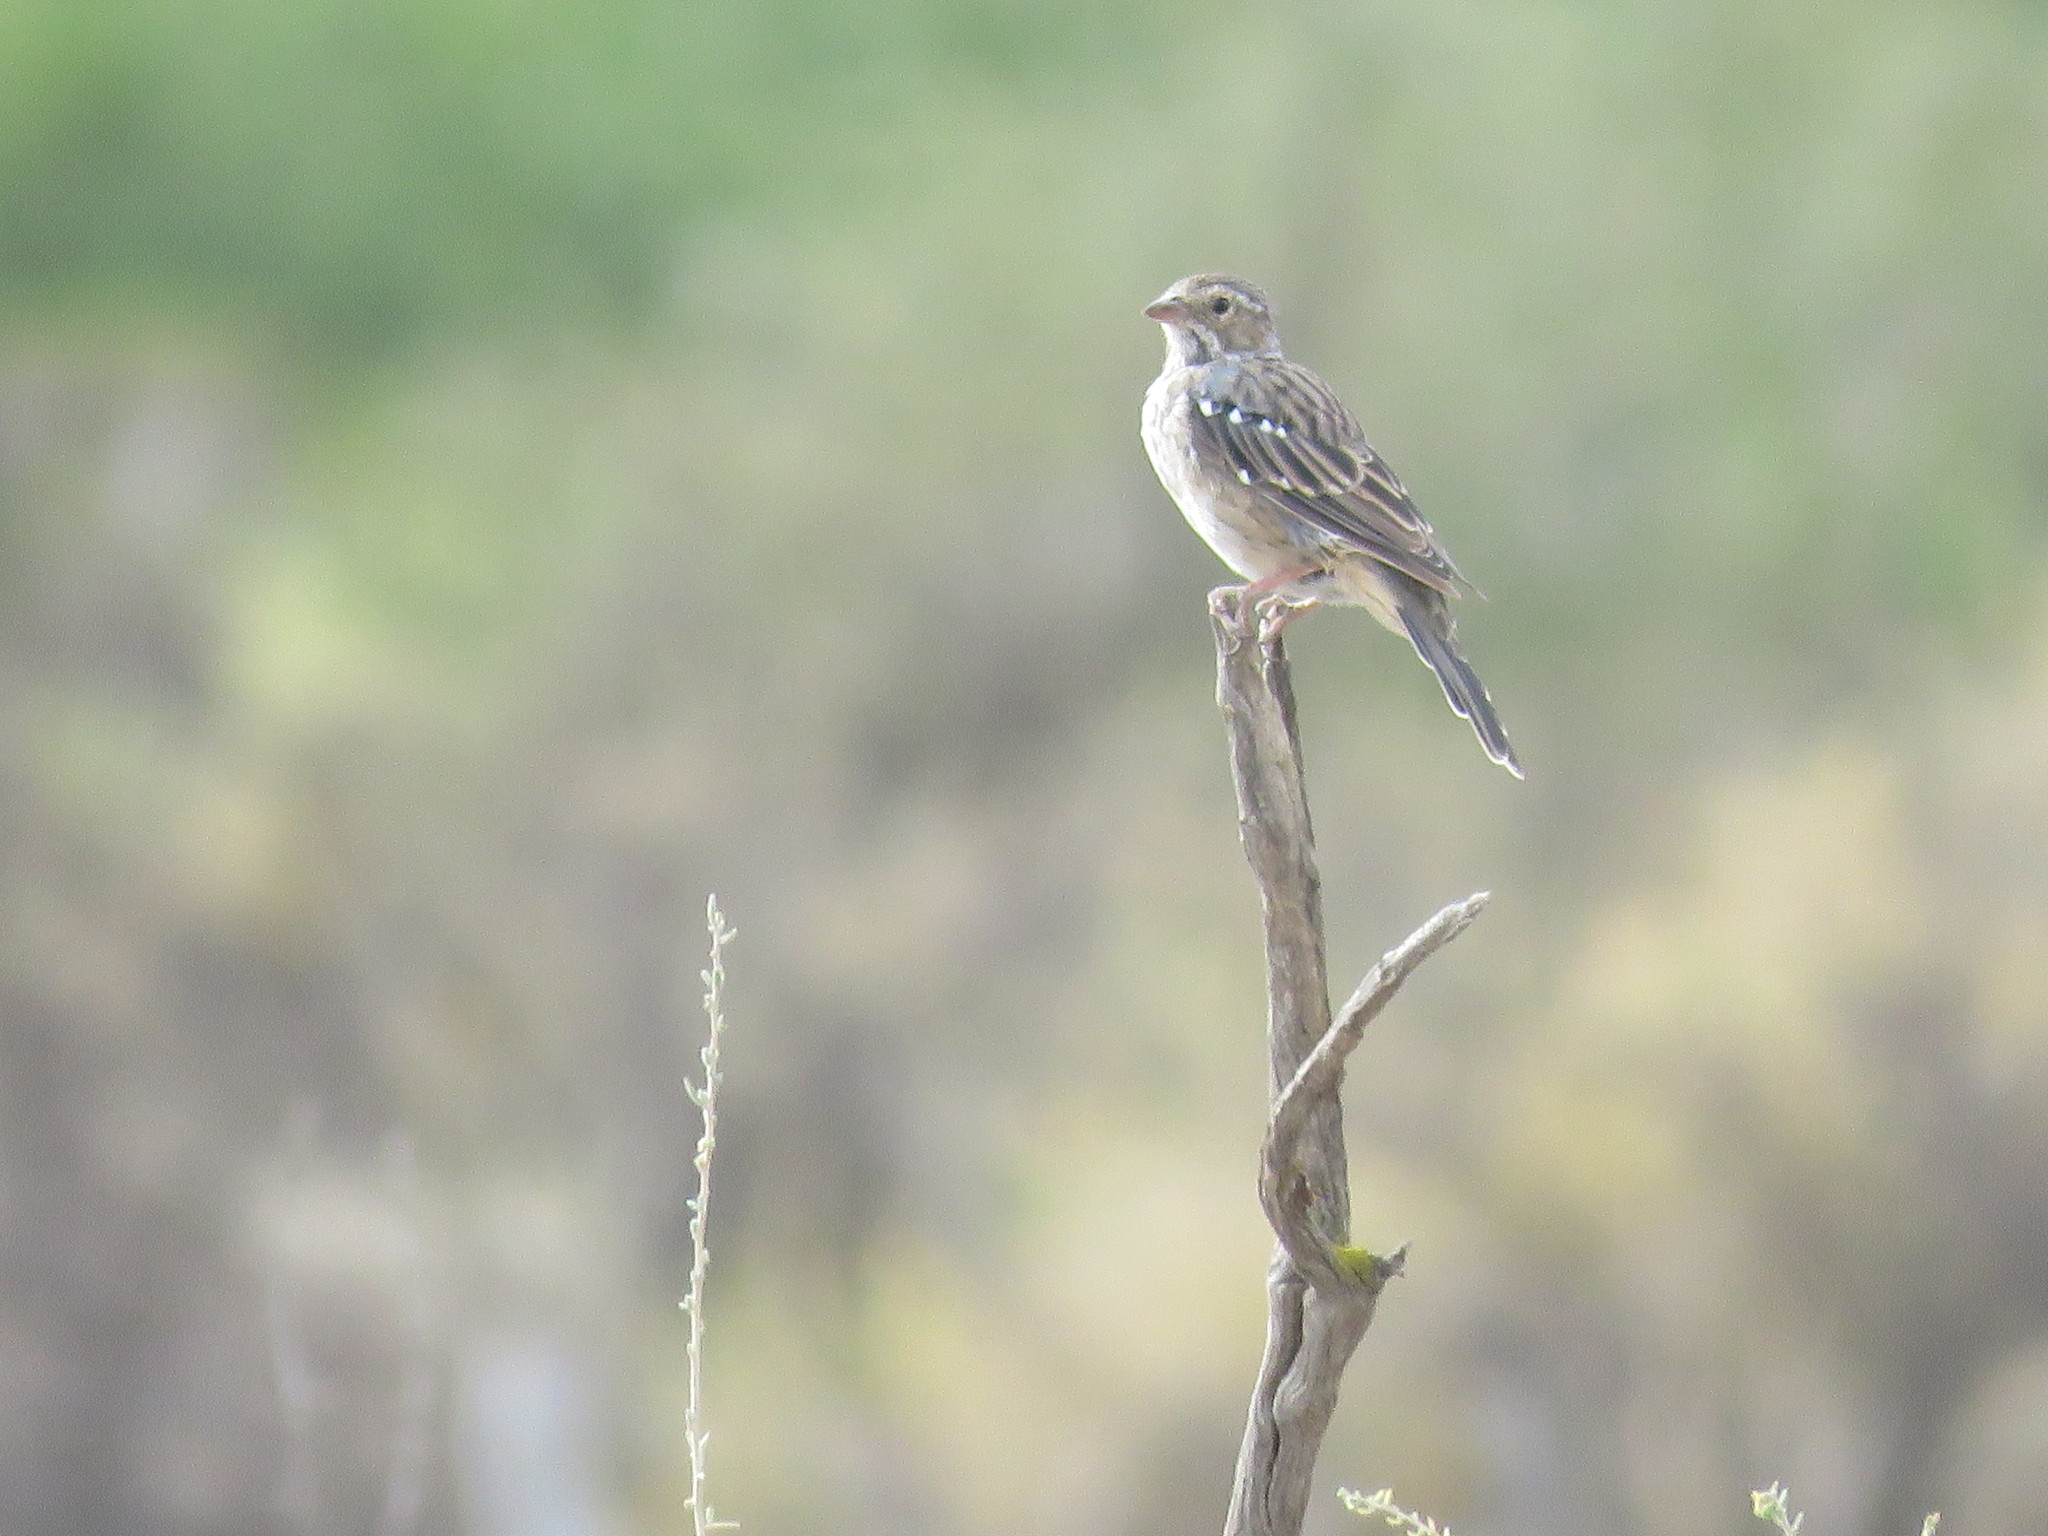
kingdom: Animalia
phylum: Chordata
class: Aves
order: Passeriformes
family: Thraupidae
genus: Rhopospina
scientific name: Rhopospina fruticeti
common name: Mourning sierra finch
